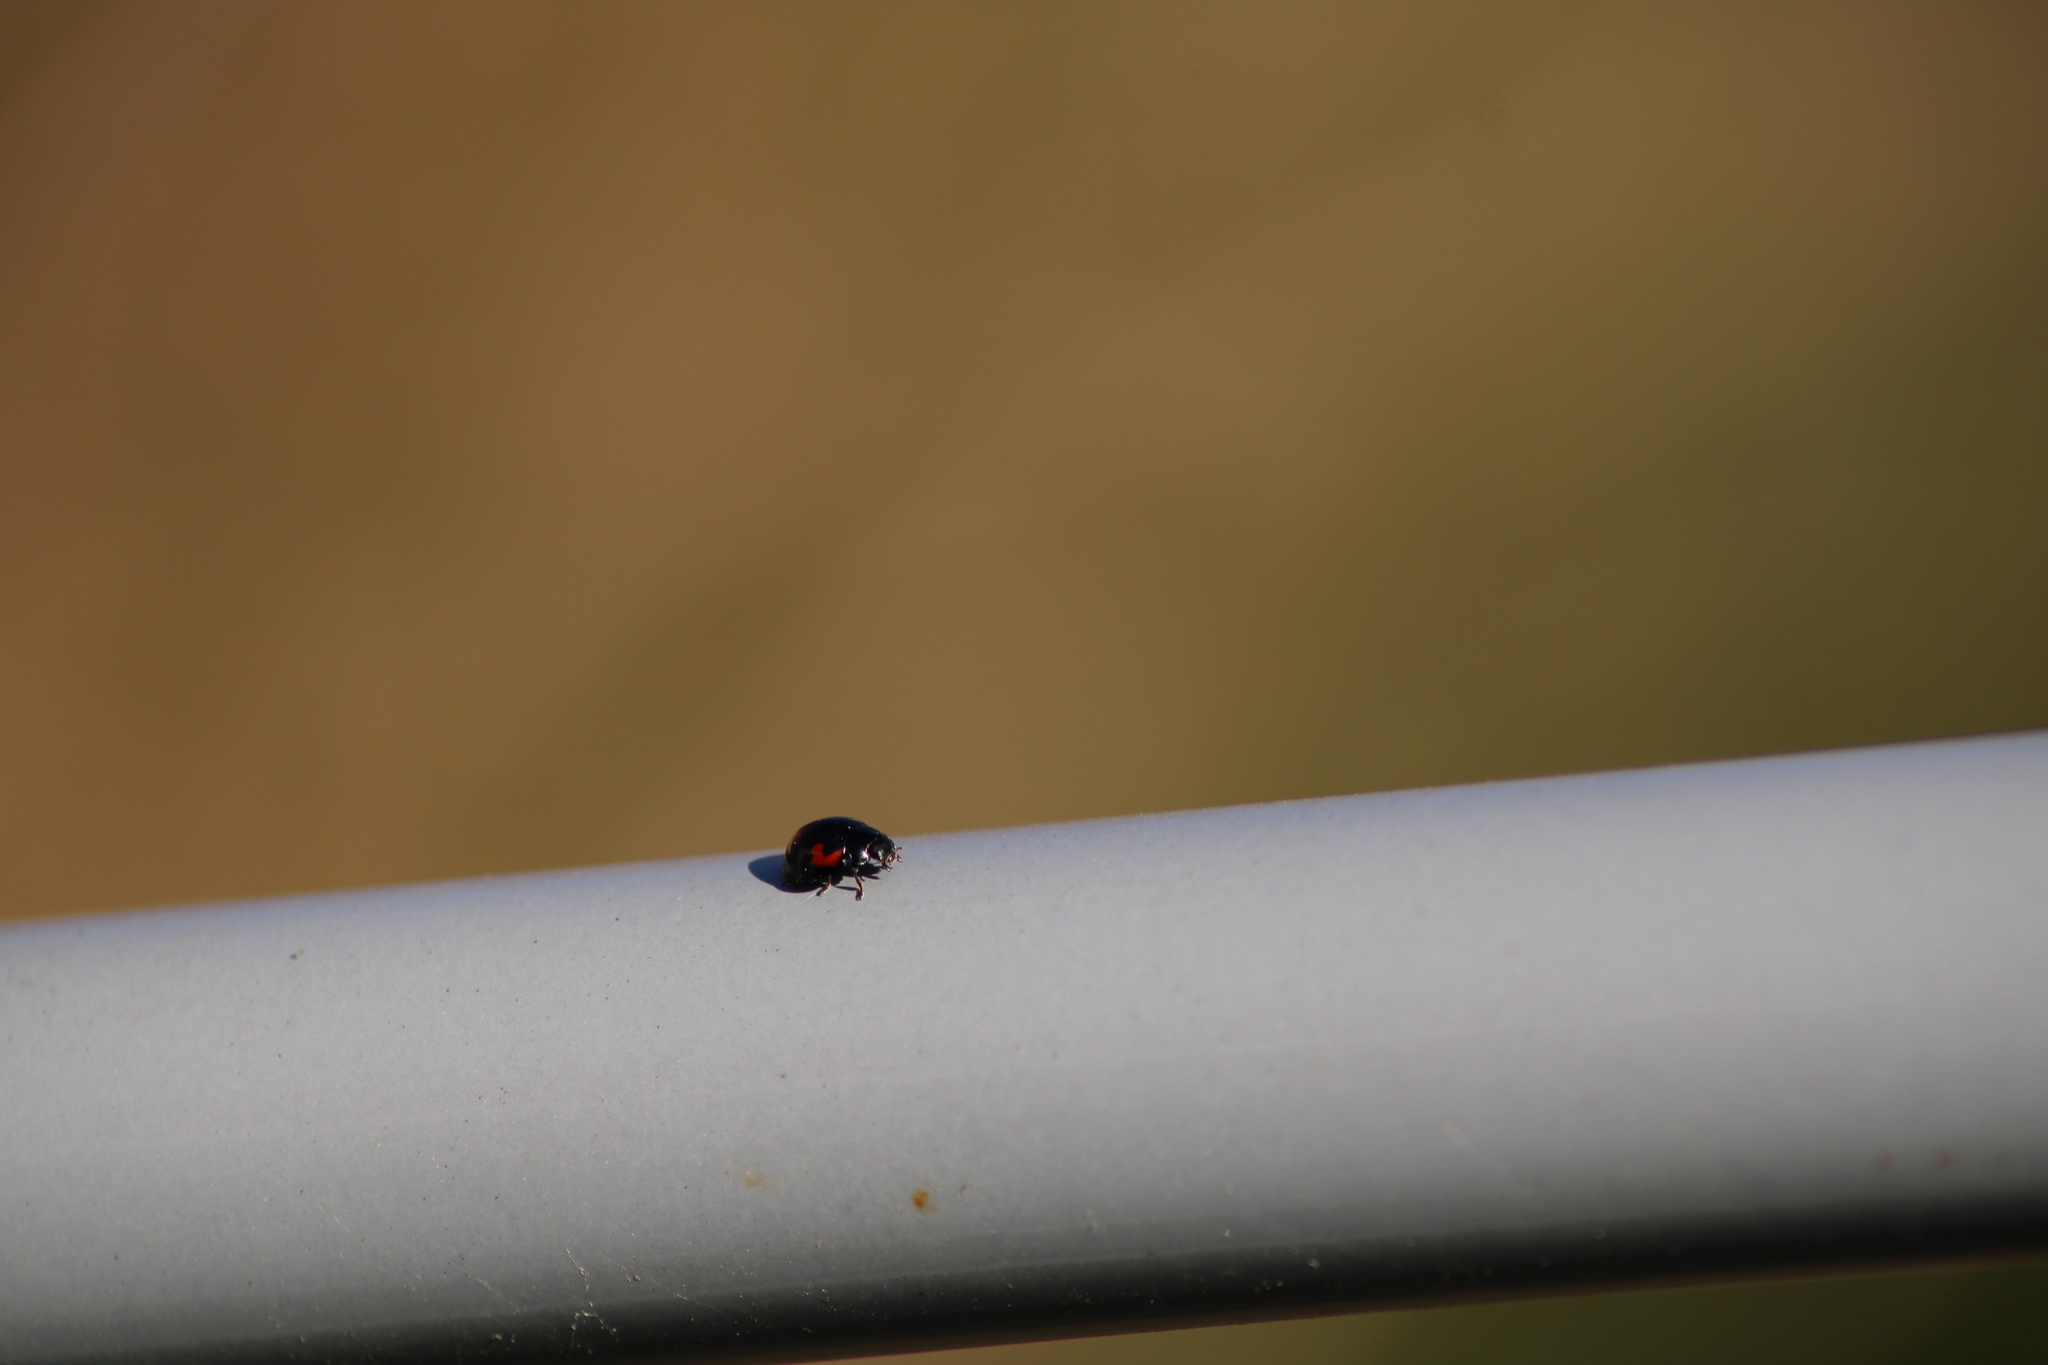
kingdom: Animalia
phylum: Arthropoda
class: Insecta
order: Coleoptera
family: Coccinellidae
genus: Brumus
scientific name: Brumus quadripustulatus
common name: Ladybird beetle
